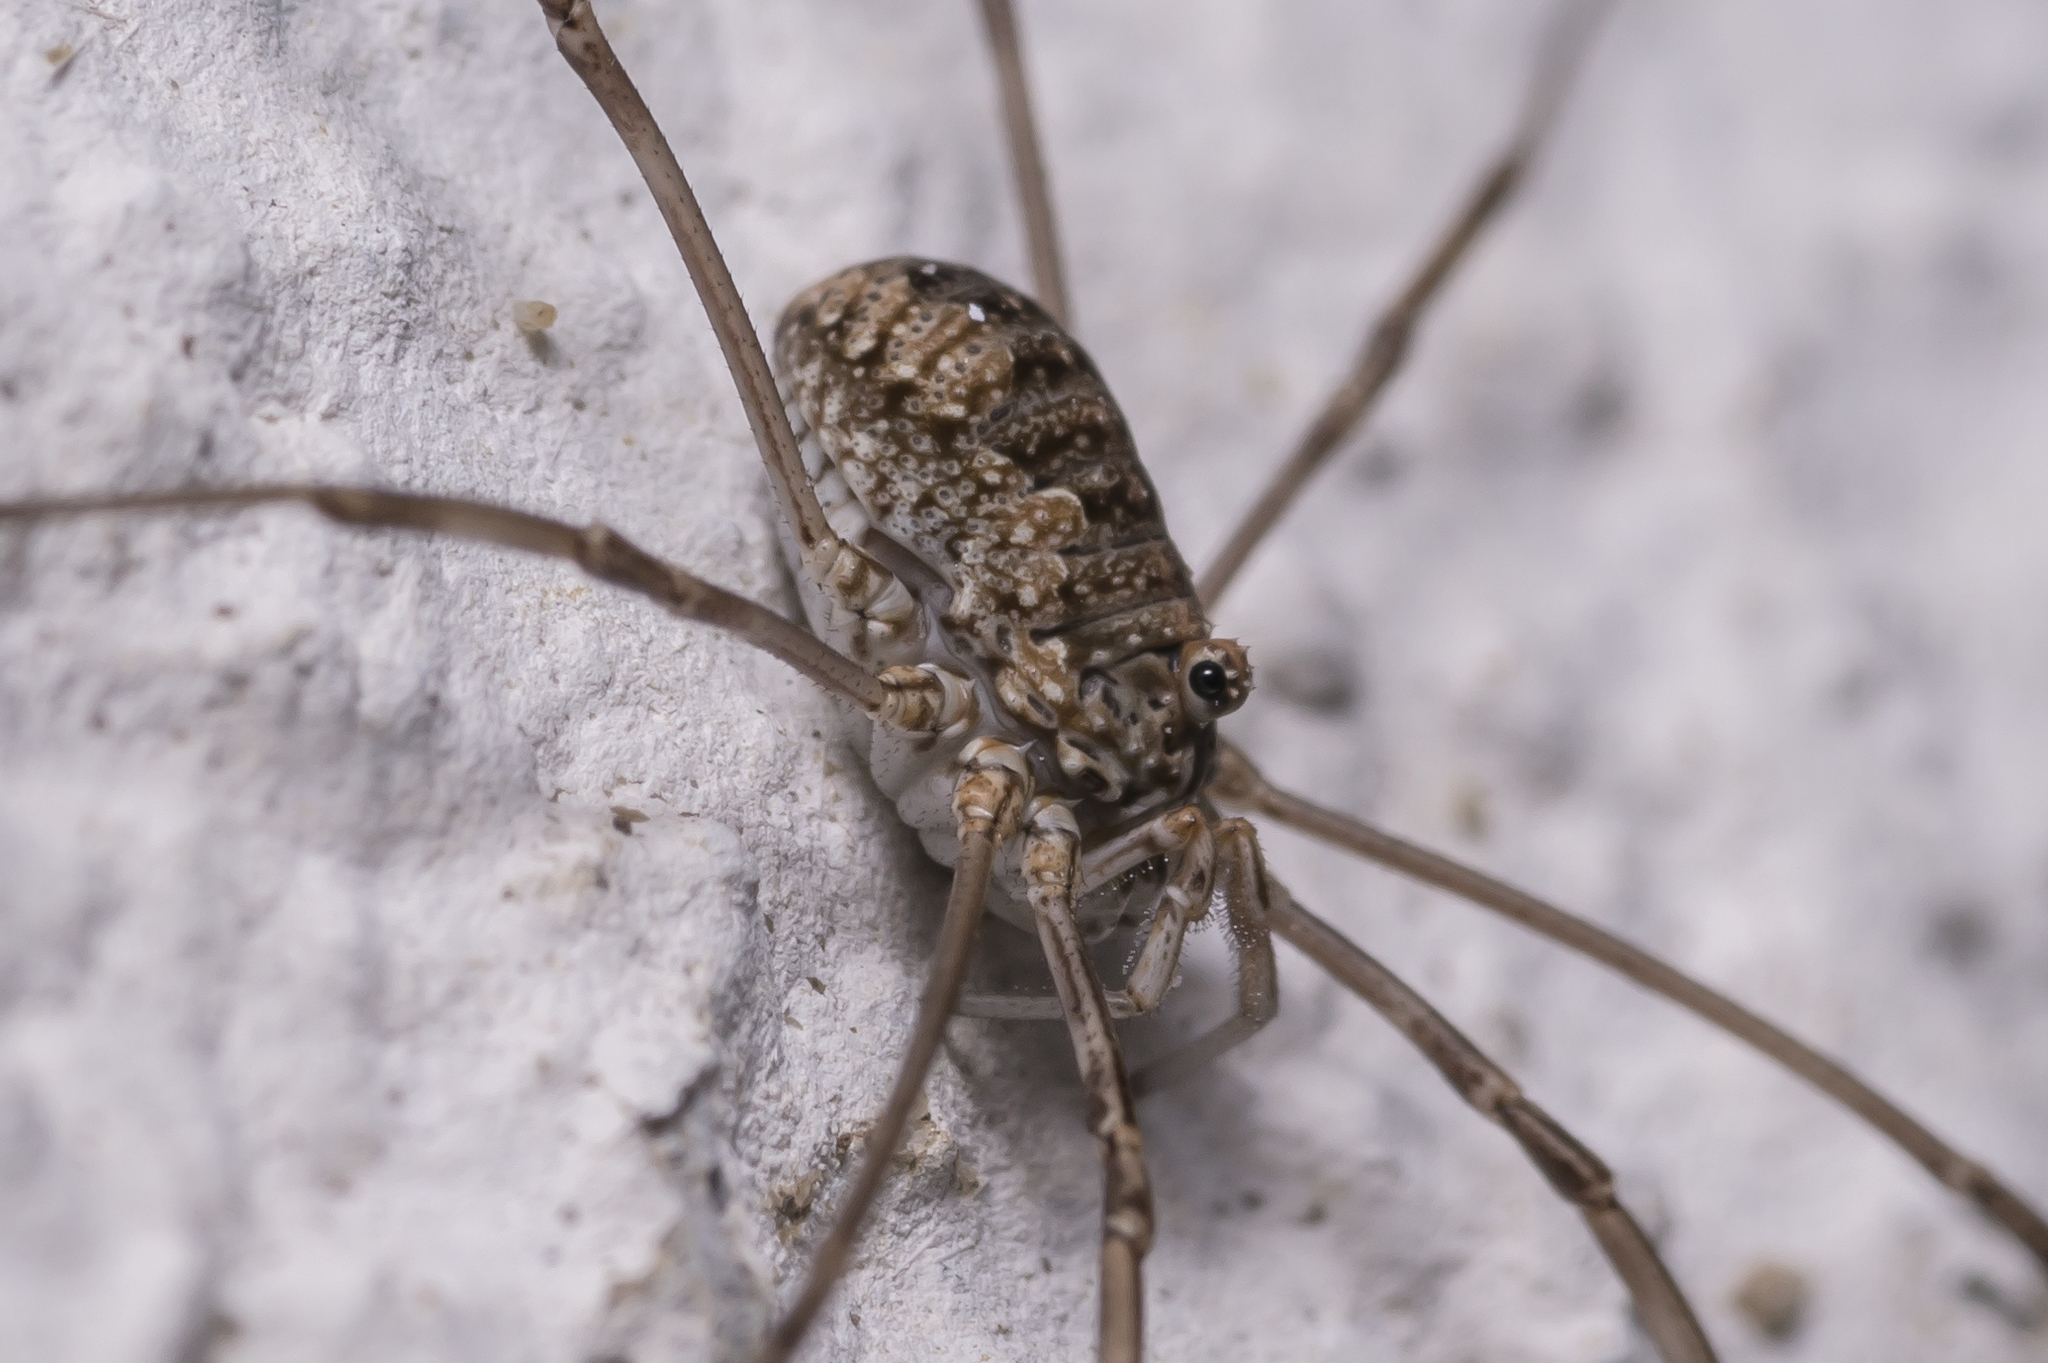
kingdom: Animalia
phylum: Arthropoda
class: Arachnida
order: Opiliones
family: Phalangiidae
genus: Phalangium
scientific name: Phalangium opilio
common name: Daddy longleg
